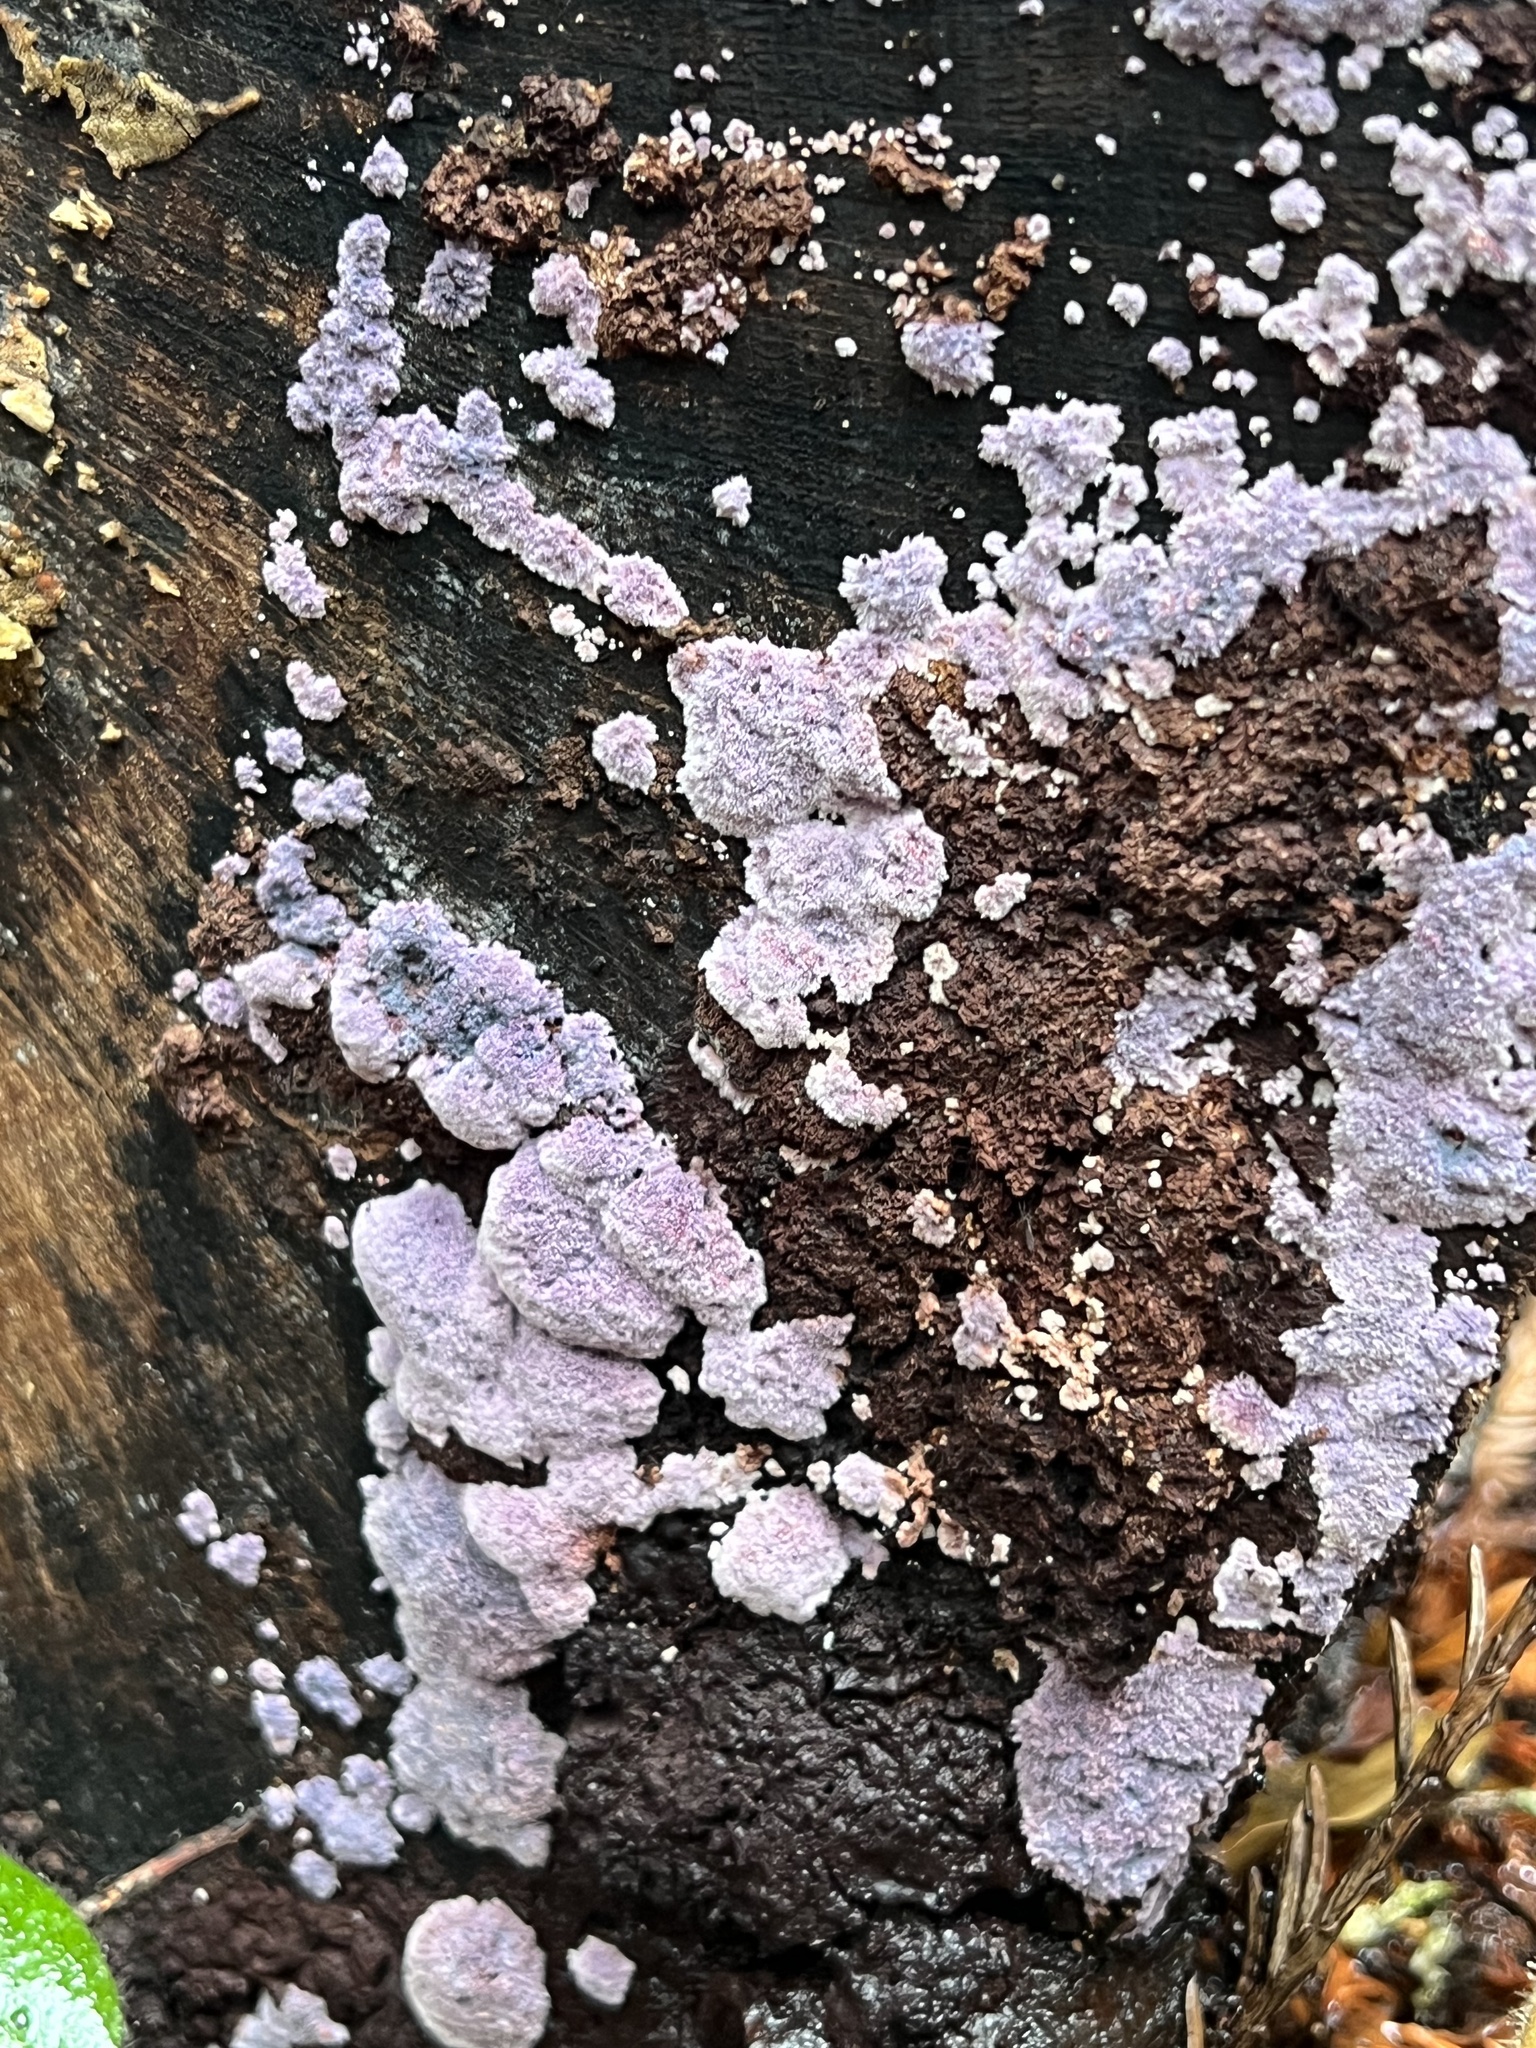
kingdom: Fungi
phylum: Basidiomycota
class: Agaricomycetes
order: Corticiales
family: Punctulariaceae
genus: Punctularia
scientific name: Punctularia atropurpurascens
